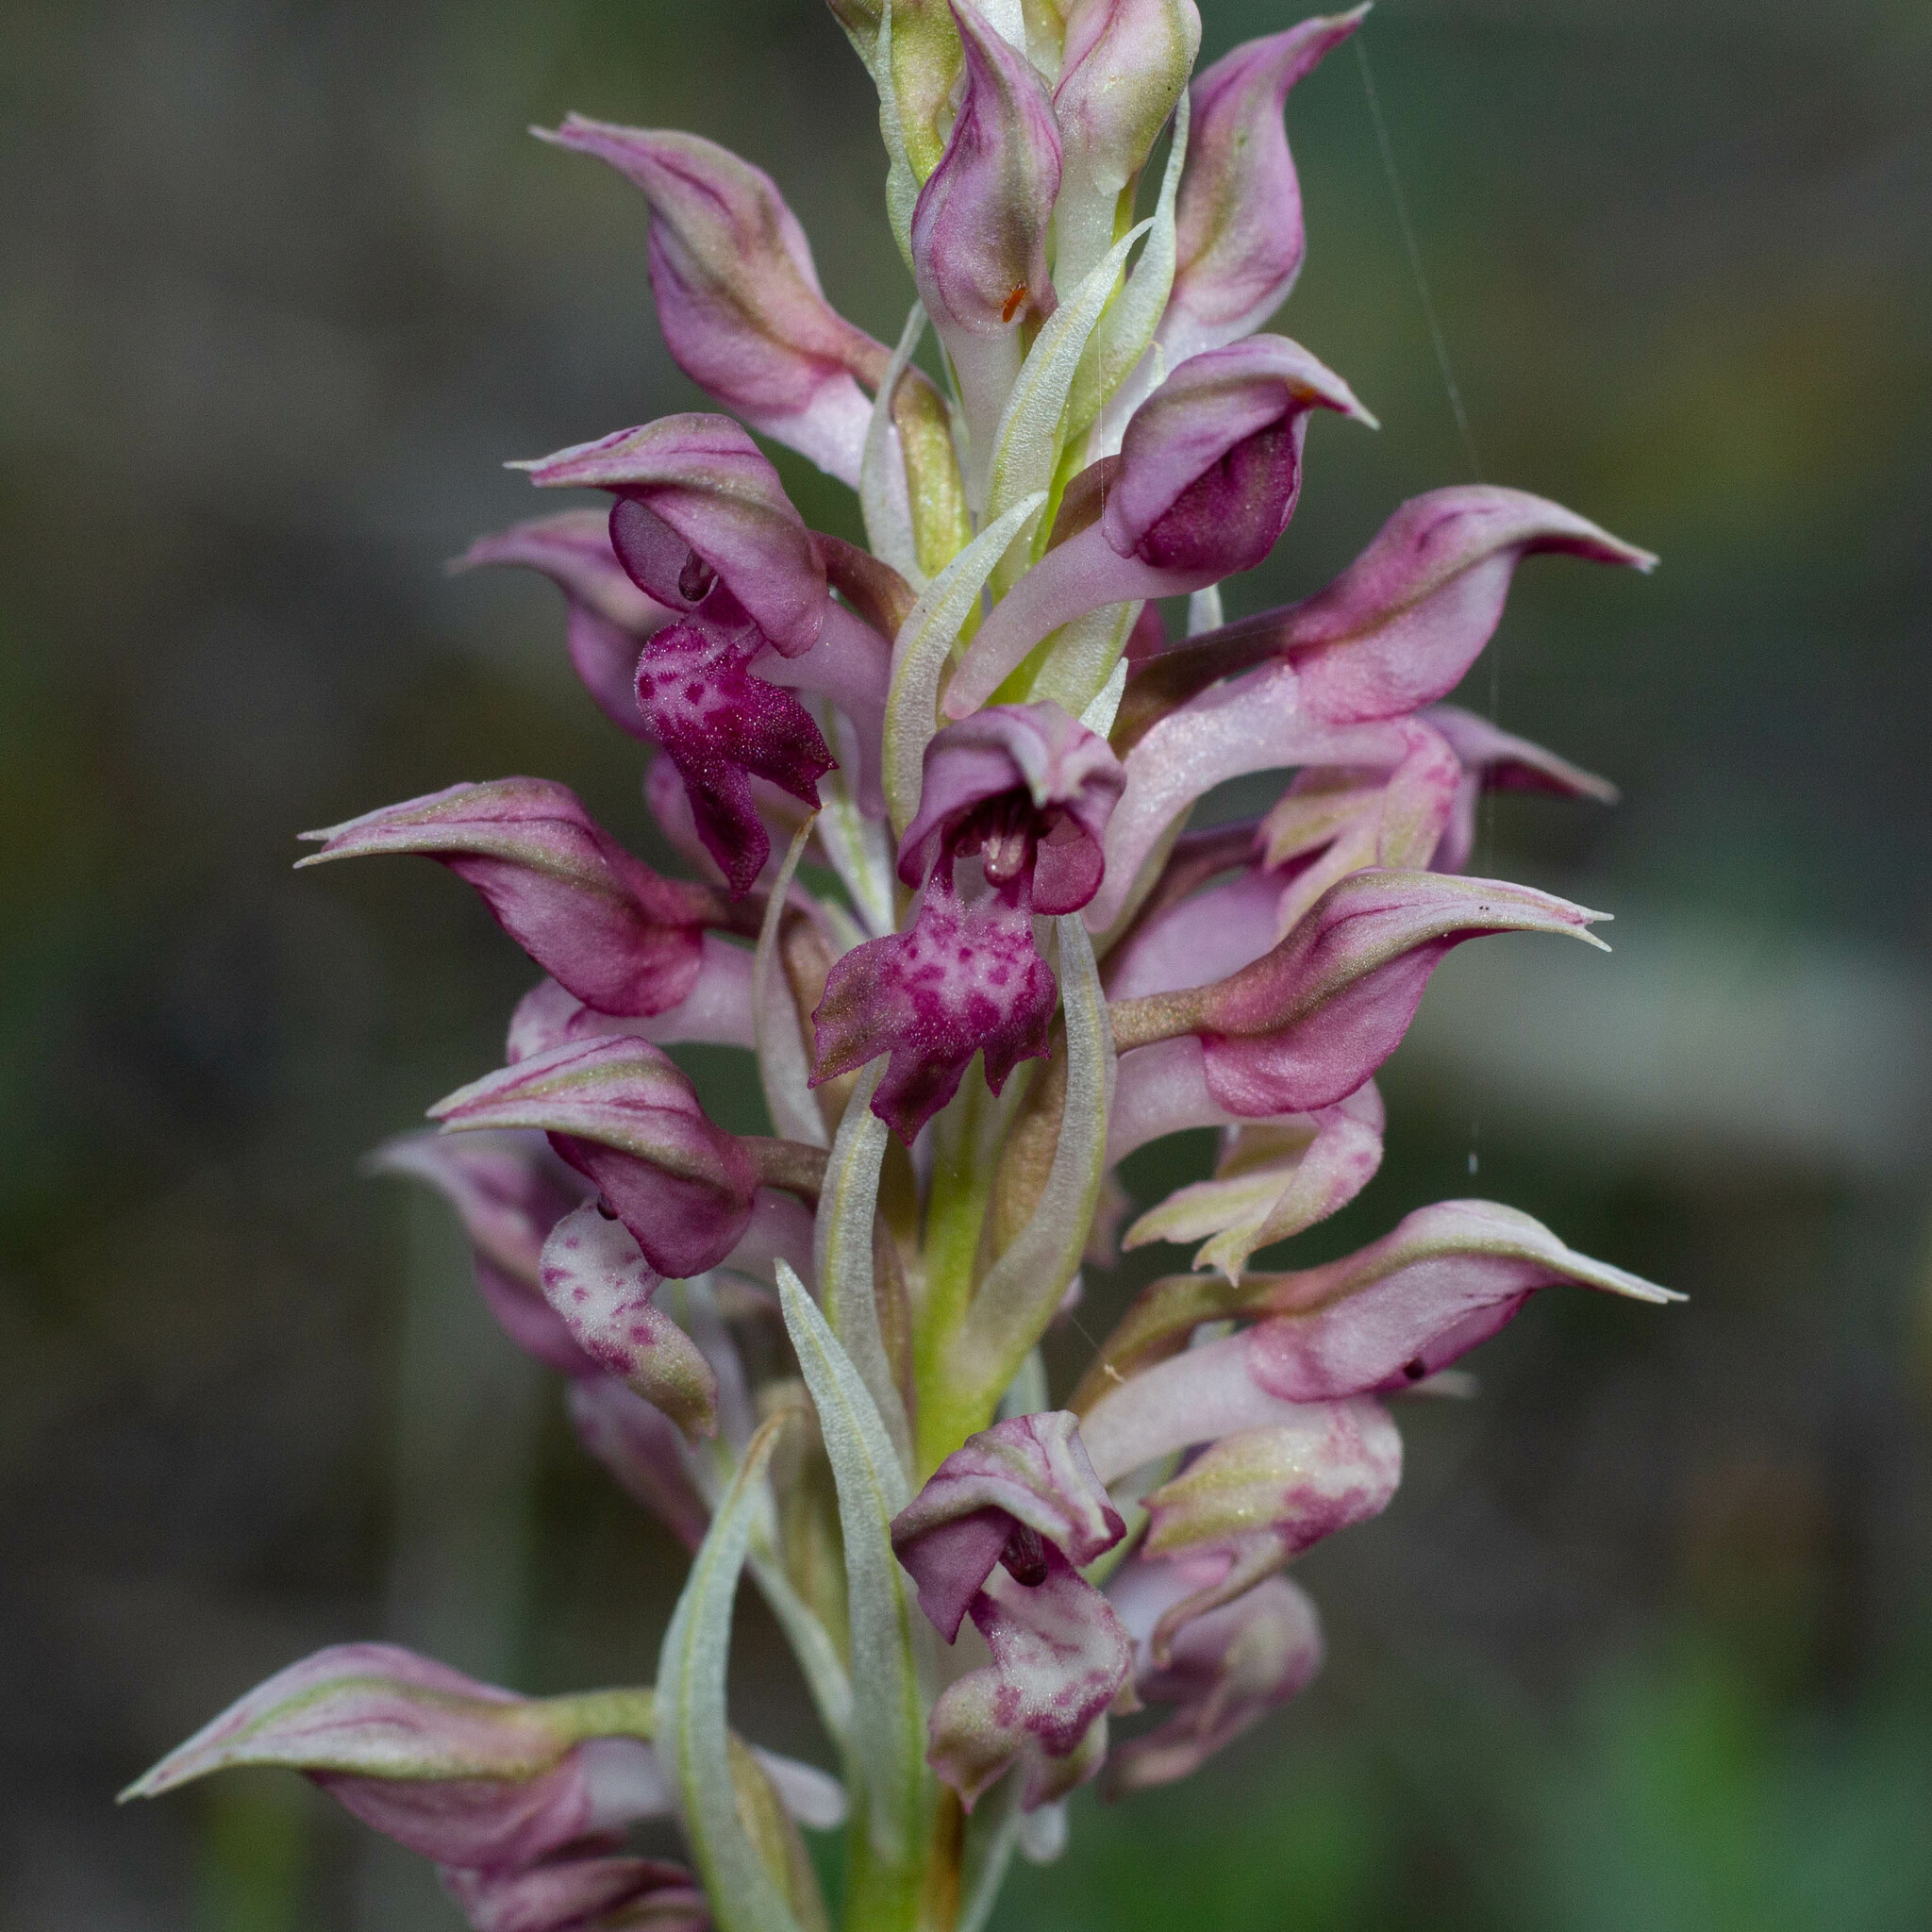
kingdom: Plantae
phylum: Tracheophyta
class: Liliopsida
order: Asparagales
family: Orchidaceae
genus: Anacamptis
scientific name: Anacamptis coriophora
